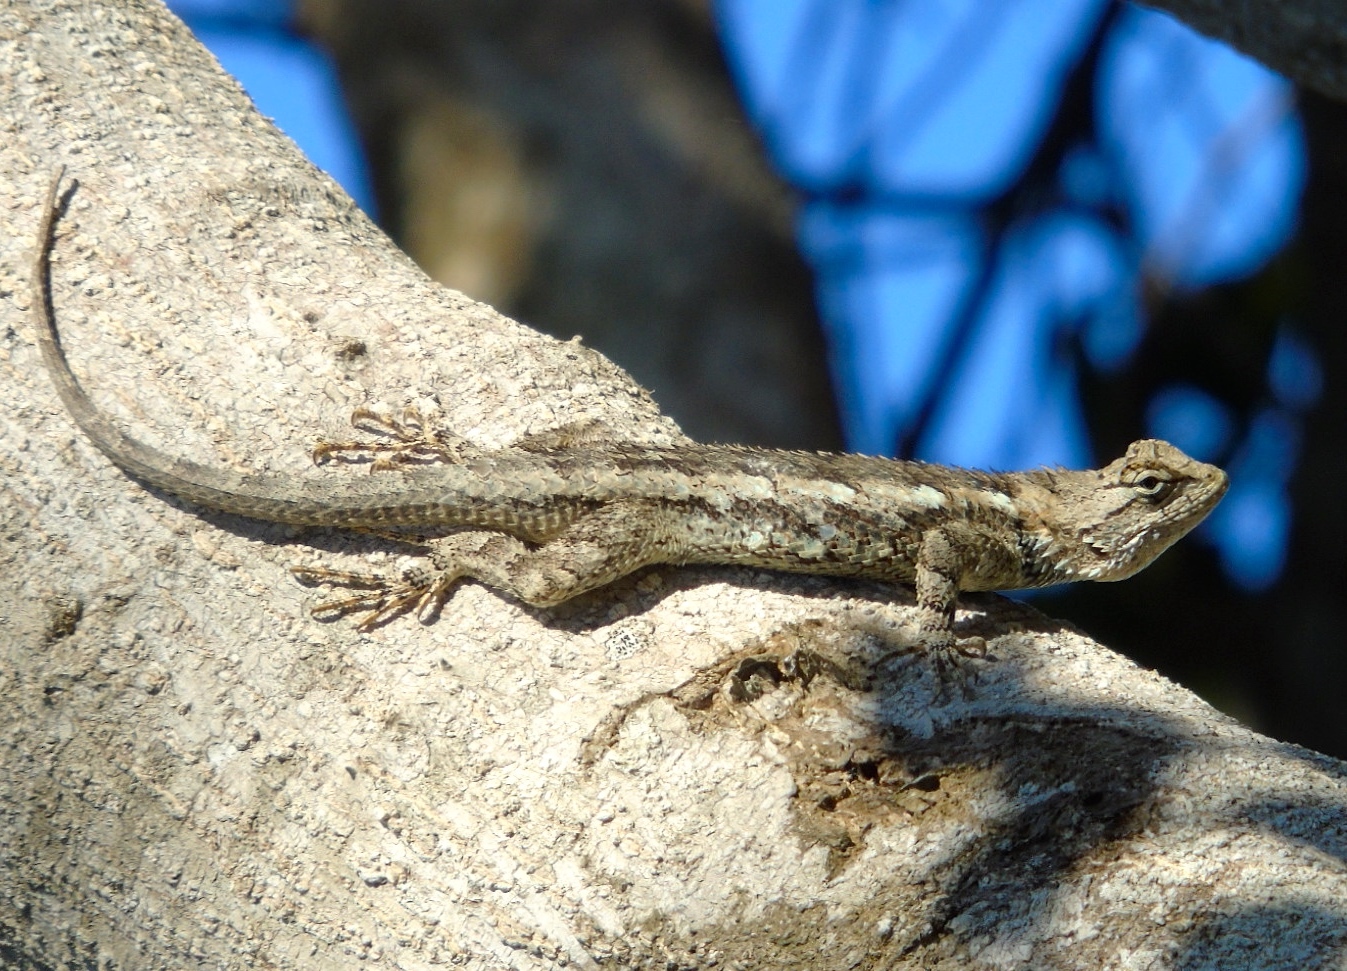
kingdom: Animalia
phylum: Chordata
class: Squamata
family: Phrynosomatidae
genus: Sceloporus
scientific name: Sceloporus clarkii
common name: Clark's spiny lizard
